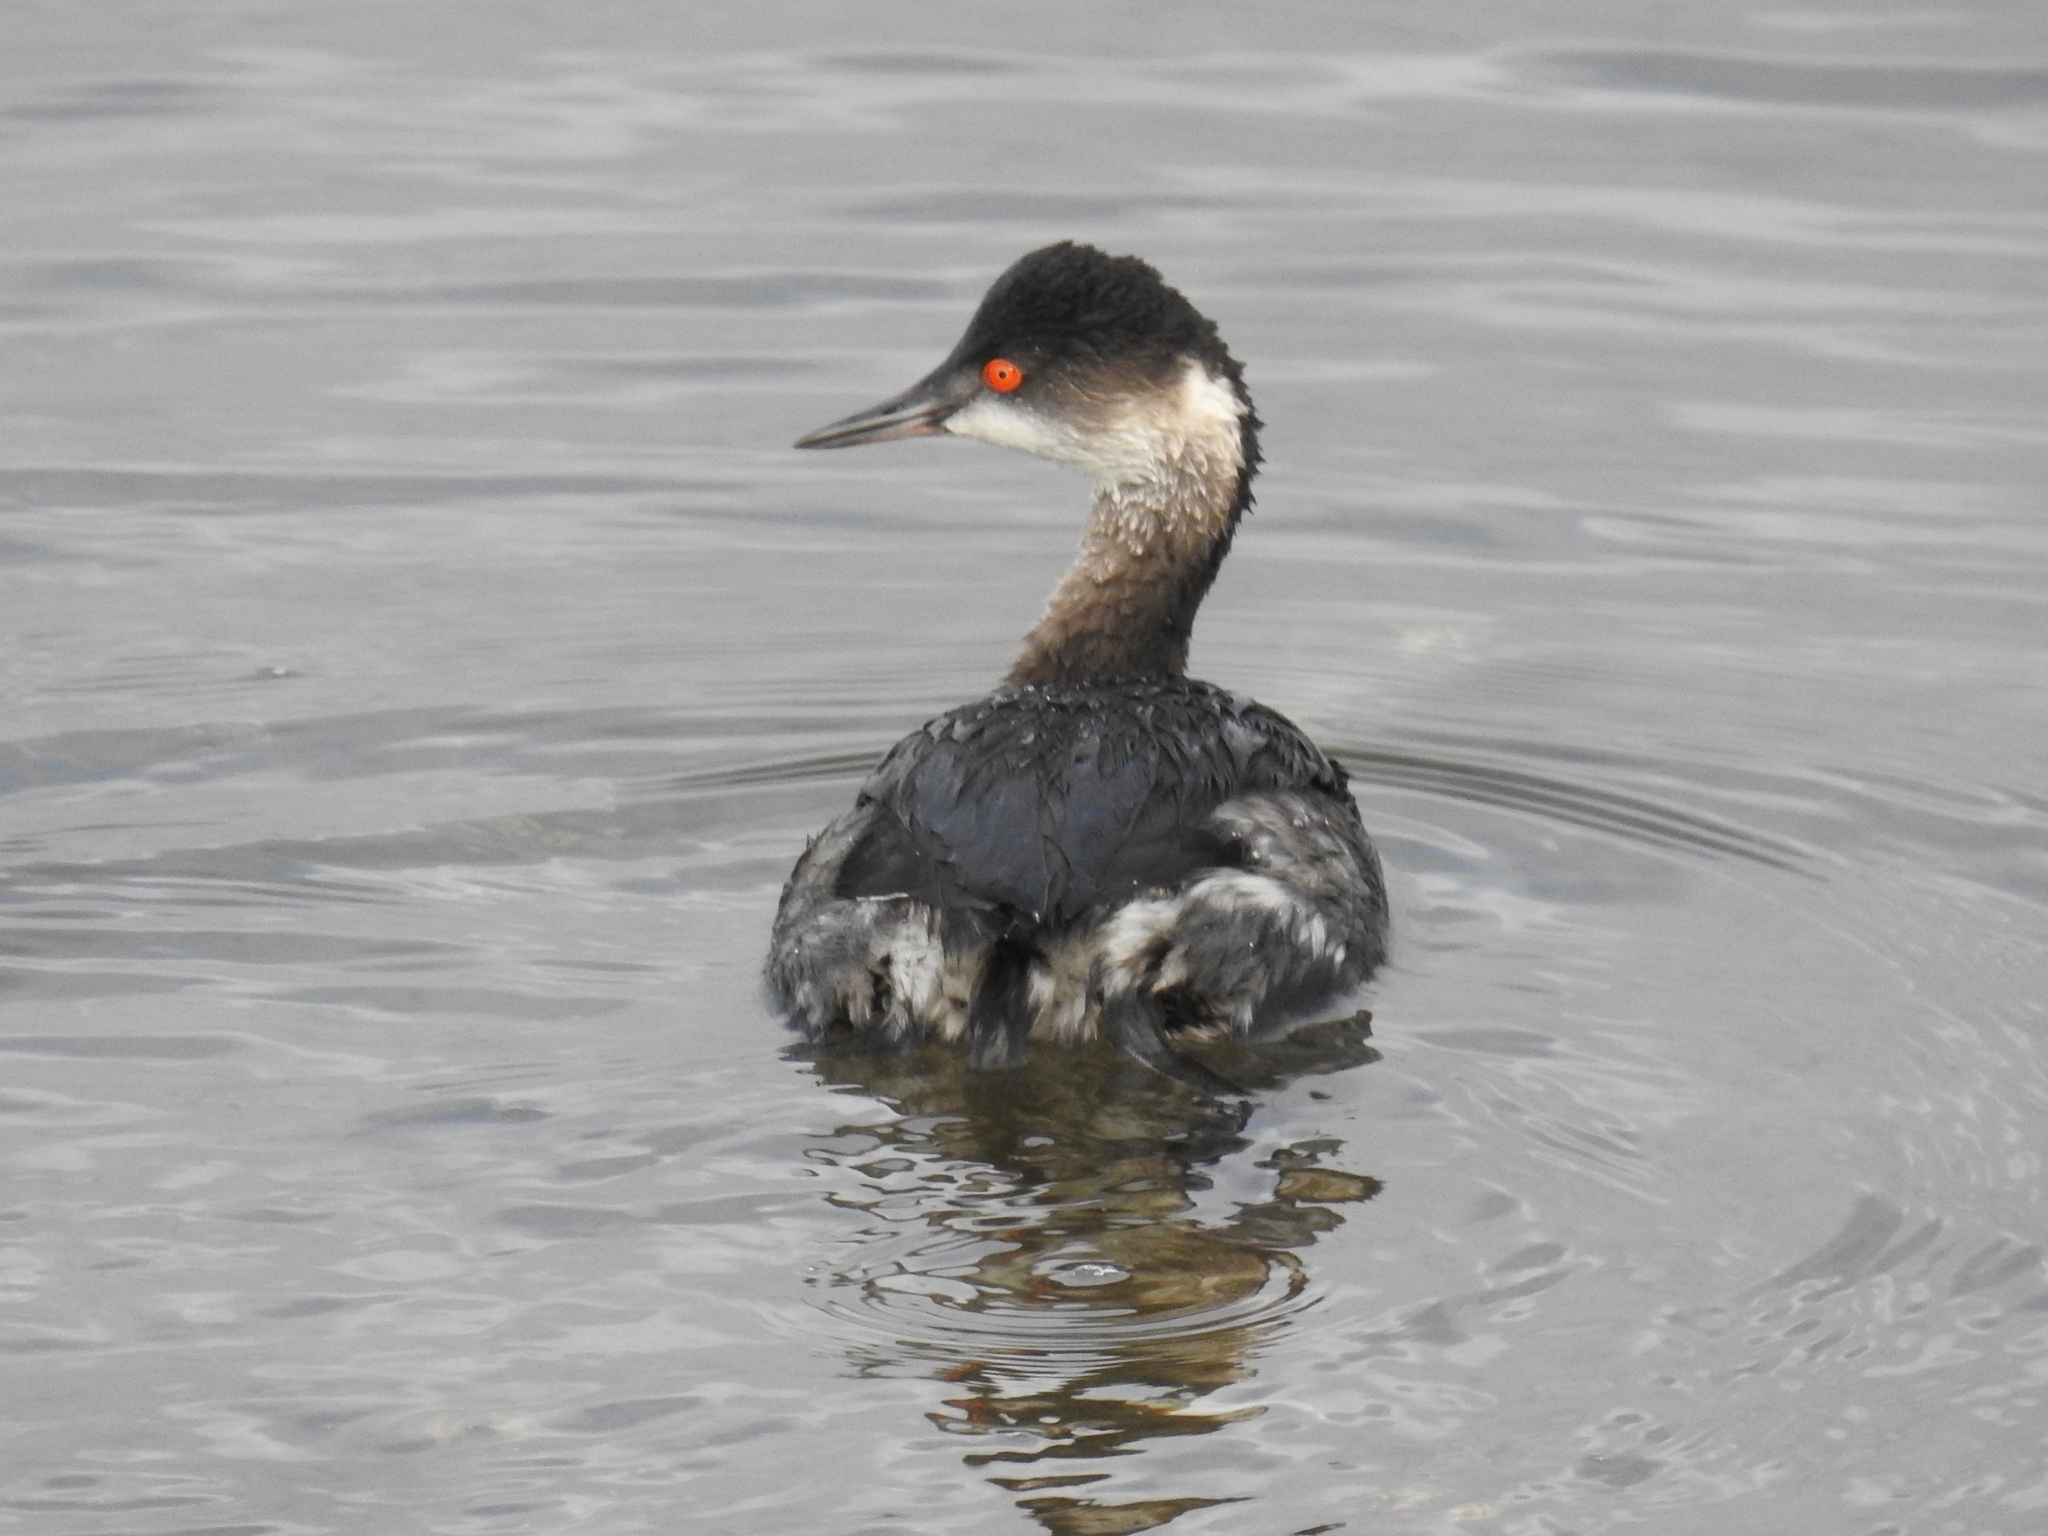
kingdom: Animalia
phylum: Chordata
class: Aves
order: Podicipediformes
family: Podicipedidae
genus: Podiceps
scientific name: Podiceps nigricollis
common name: Black-necked grebe
